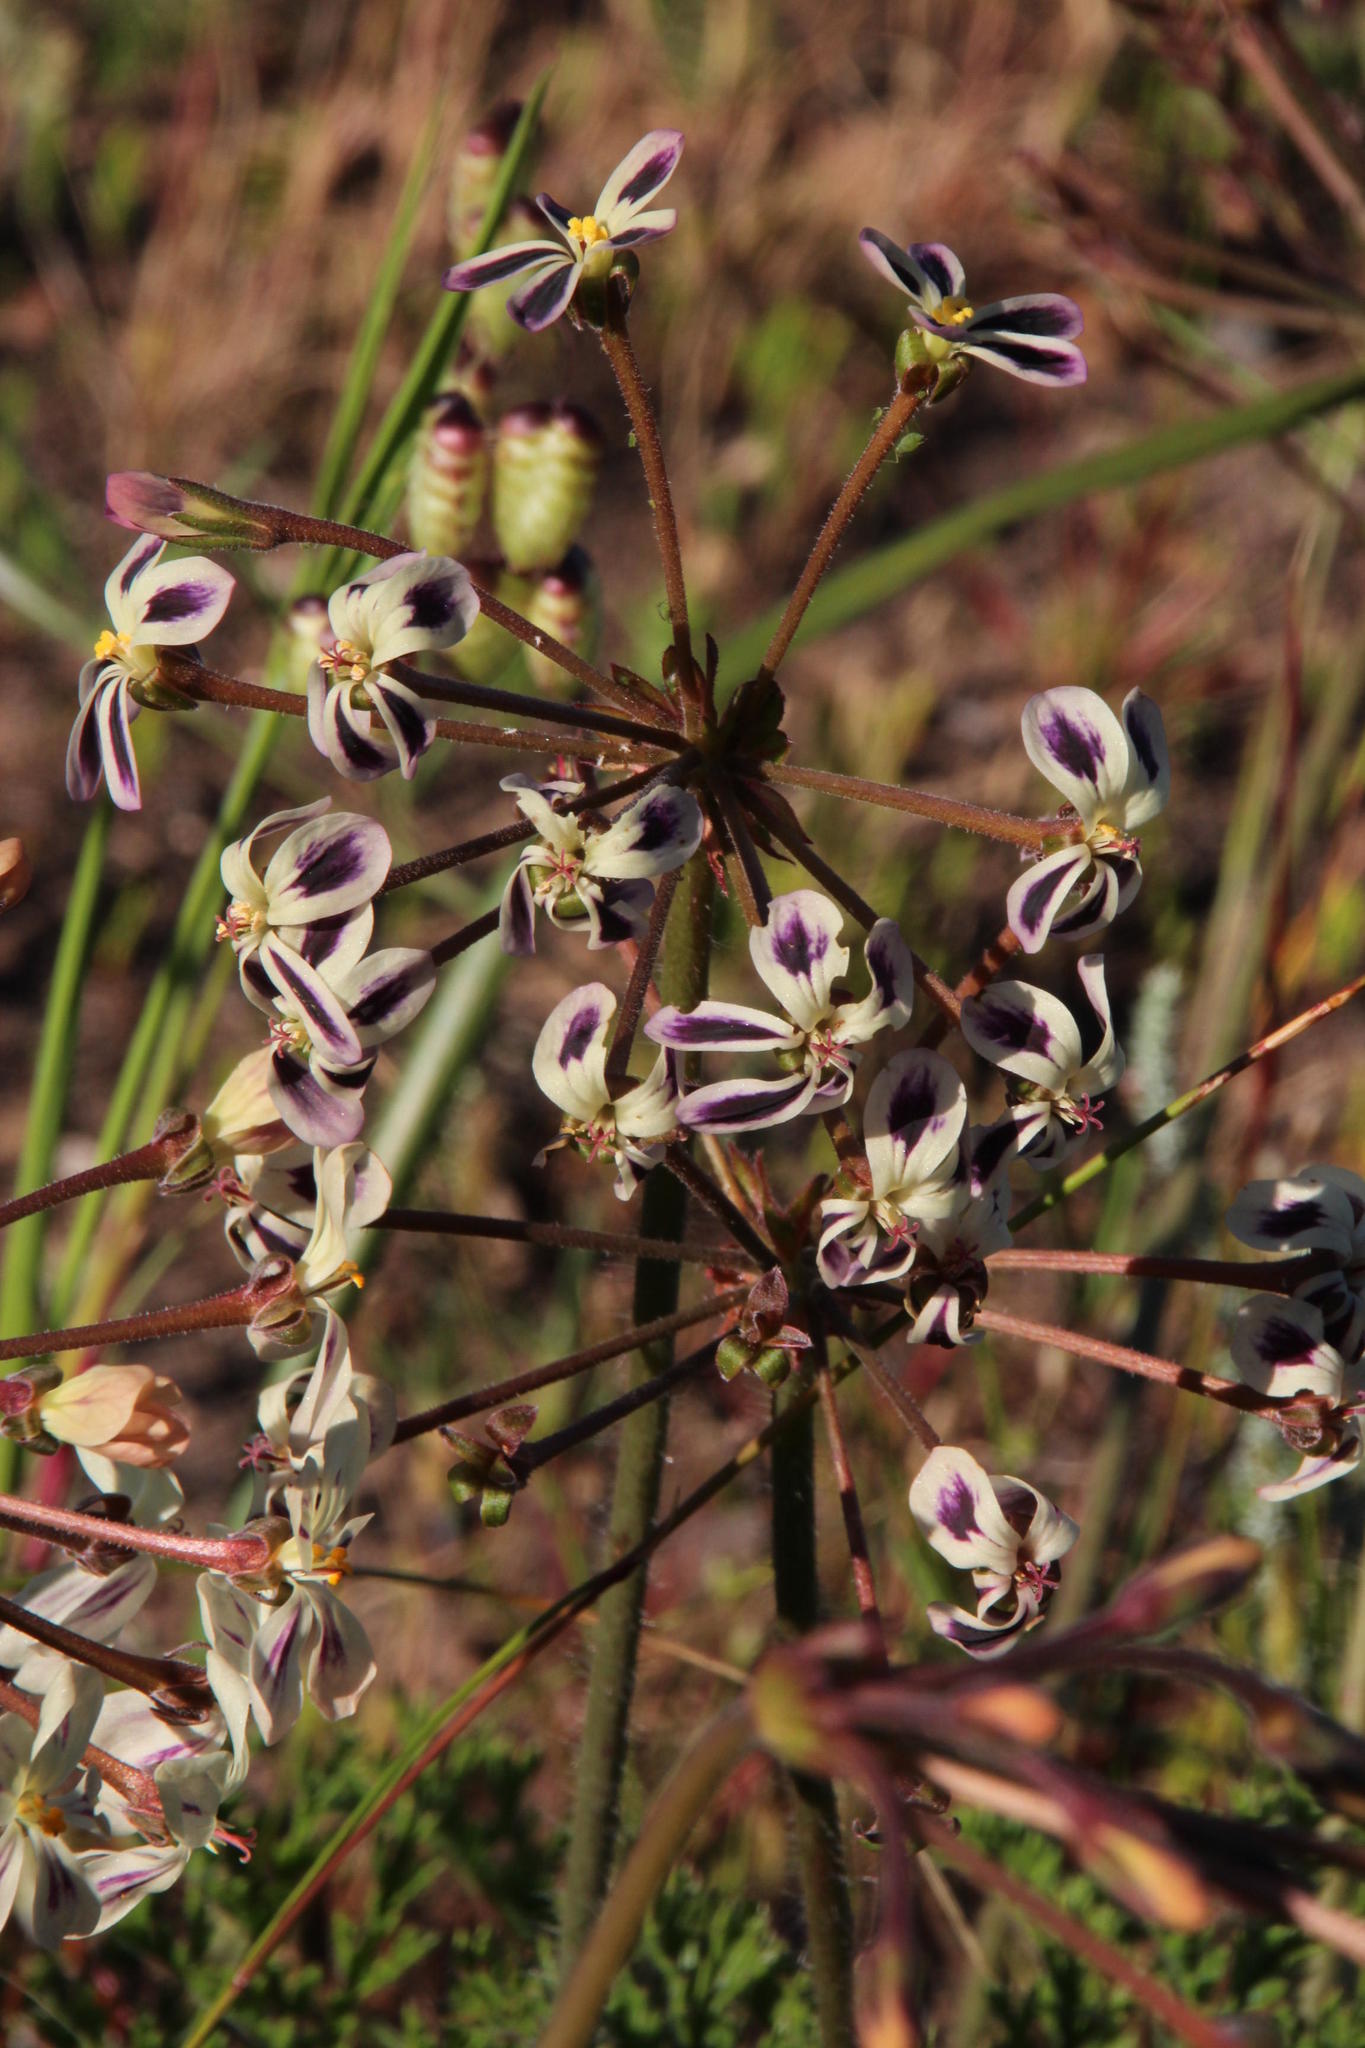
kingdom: Plantae
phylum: Tracheophyta
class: Magnoliopsida
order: Geraniales
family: Geraniaceae
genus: Pelargonium
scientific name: Pelargonium triste
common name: Night-scent pelargonium
